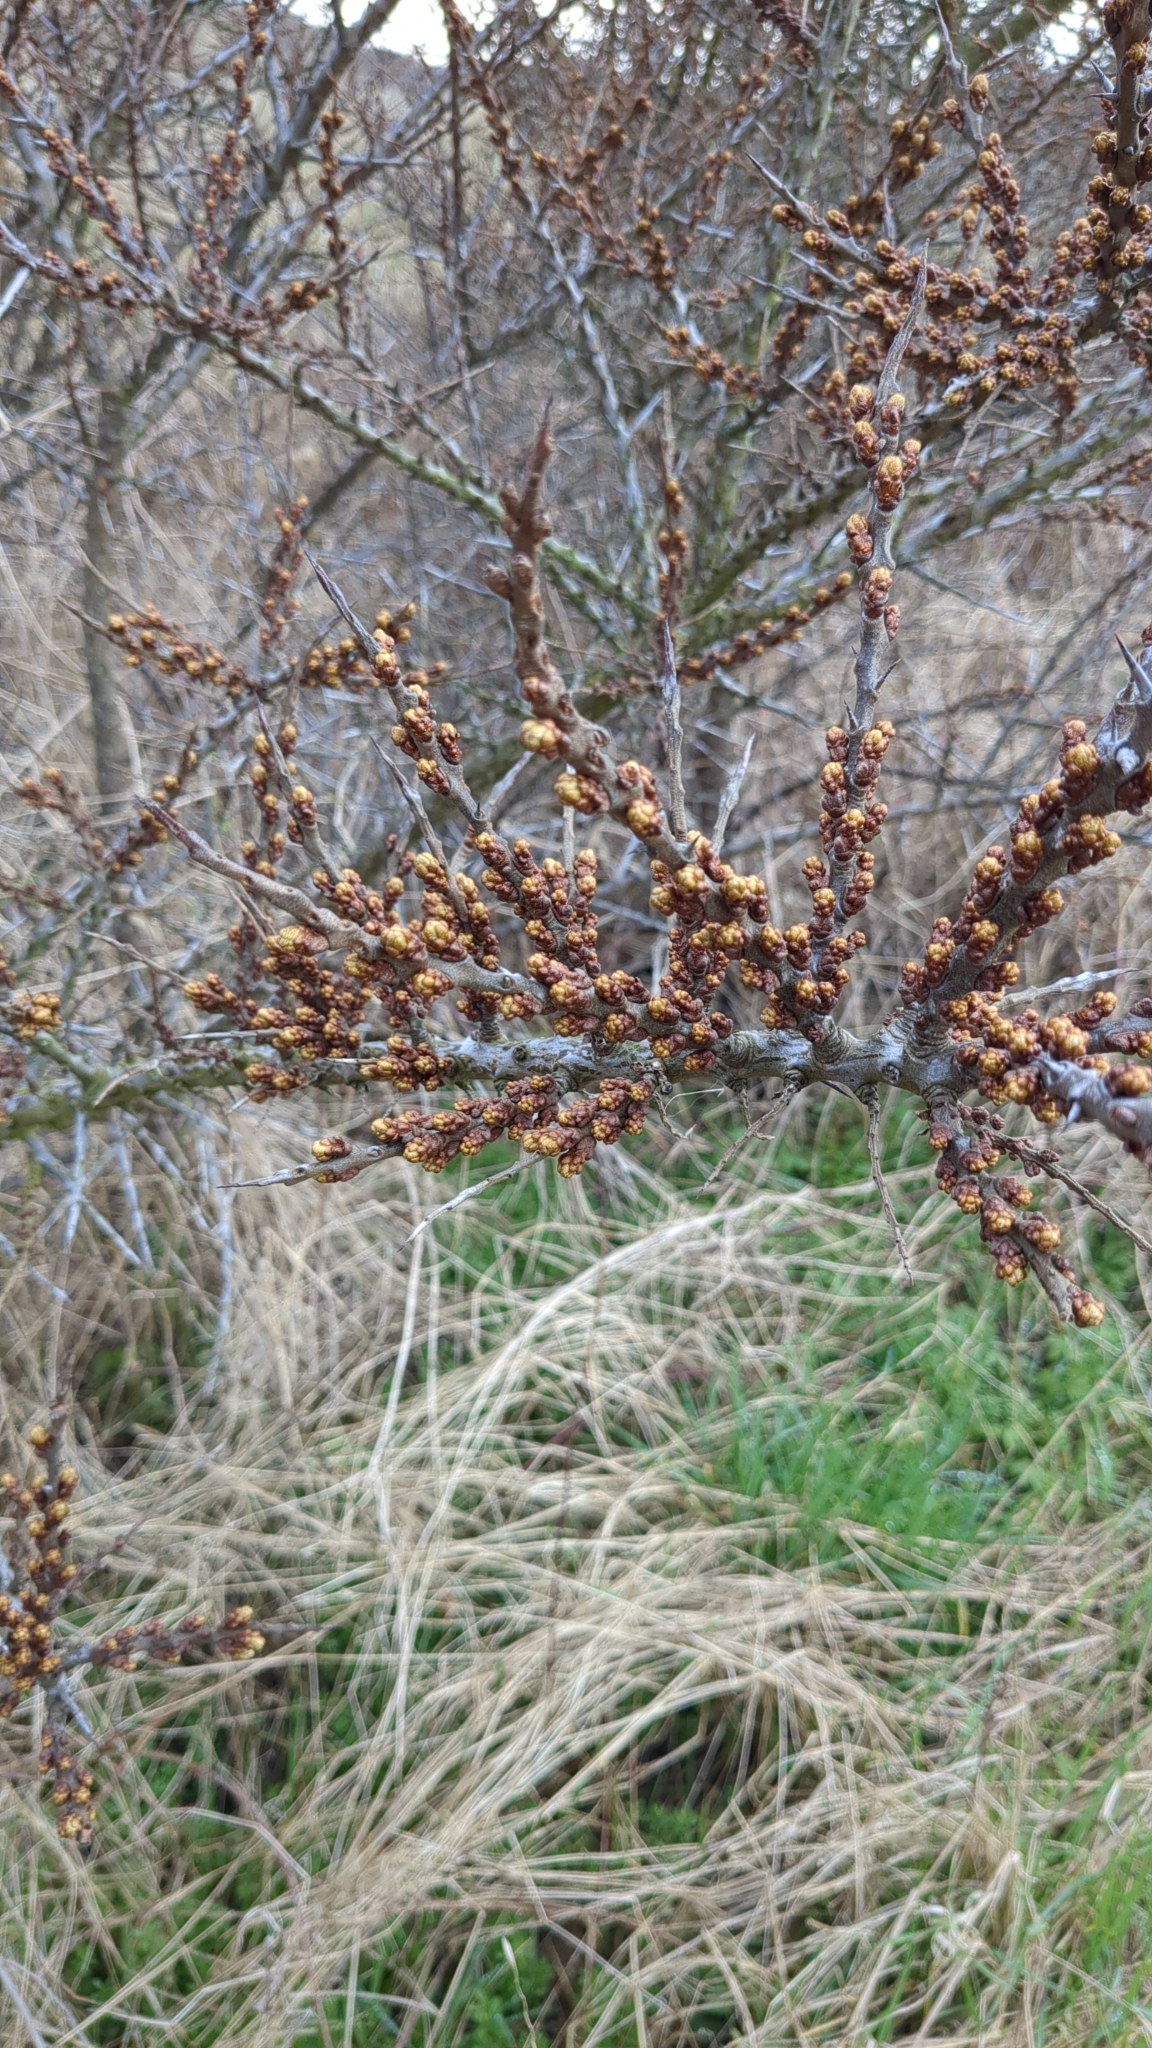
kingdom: Plantae
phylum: Tracheophyta
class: Magnoliopsida
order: Rosales
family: Elaeagnaceae
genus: Hippophae
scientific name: Hippophae rhamnoides
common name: Sea-buckthorn
